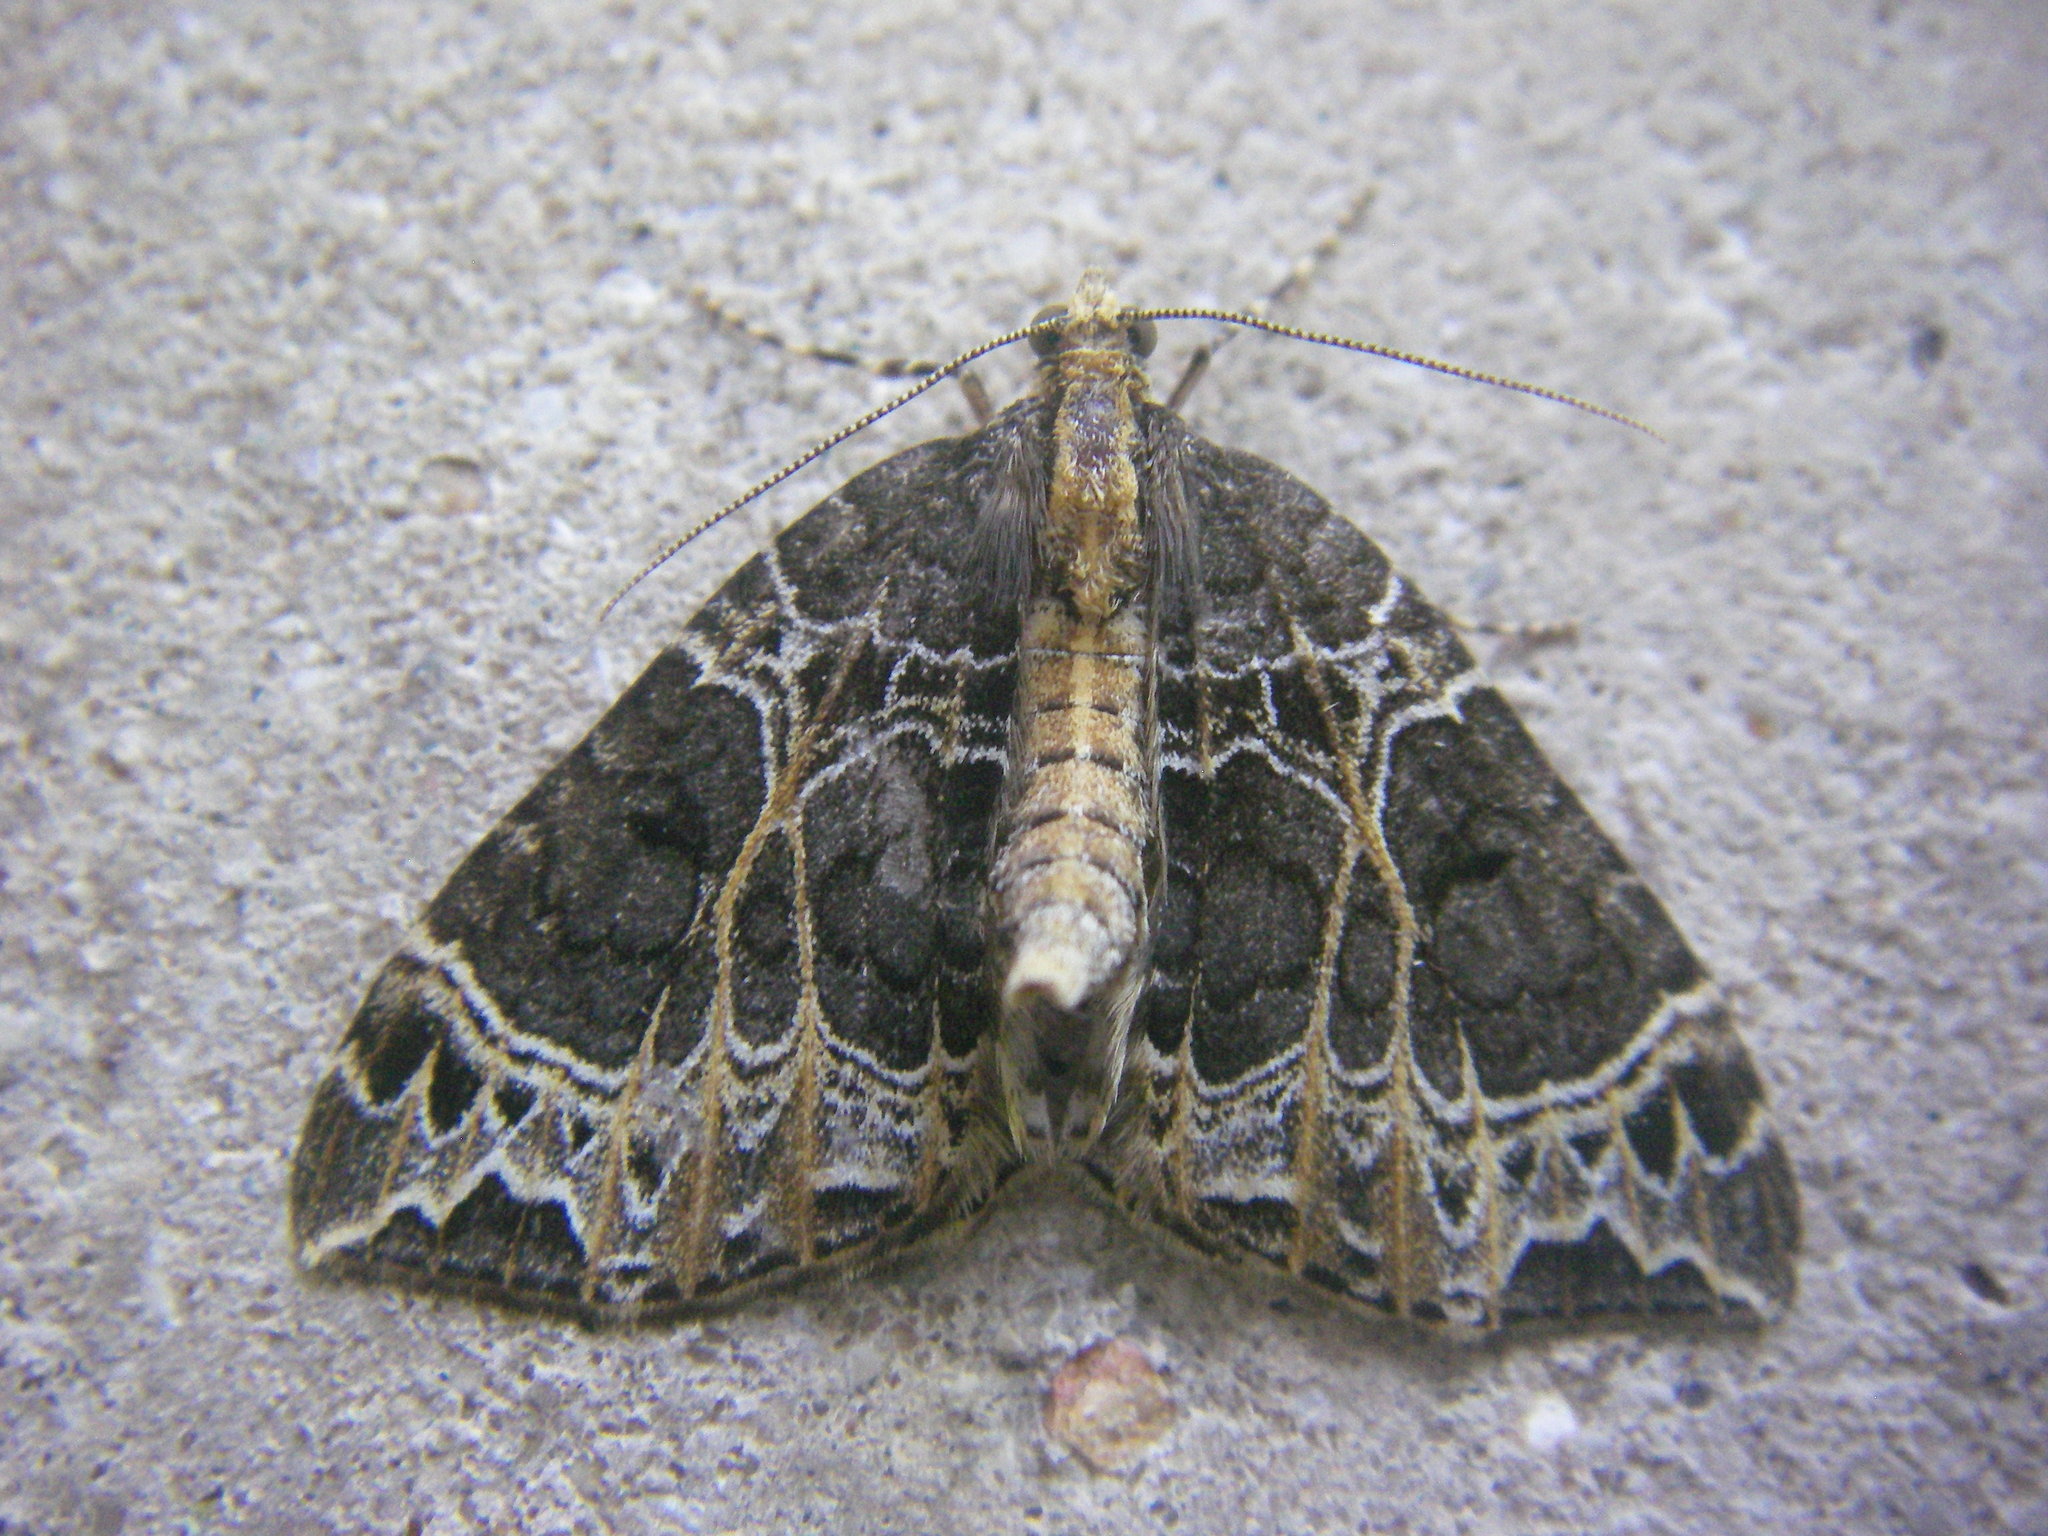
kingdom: Animalia
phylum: Arthropoda
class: Insecta
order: Lepidoptera
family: Geometridae
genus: Ecliptopera
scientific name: Ecliptopera silaceata
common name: Small phoenix
